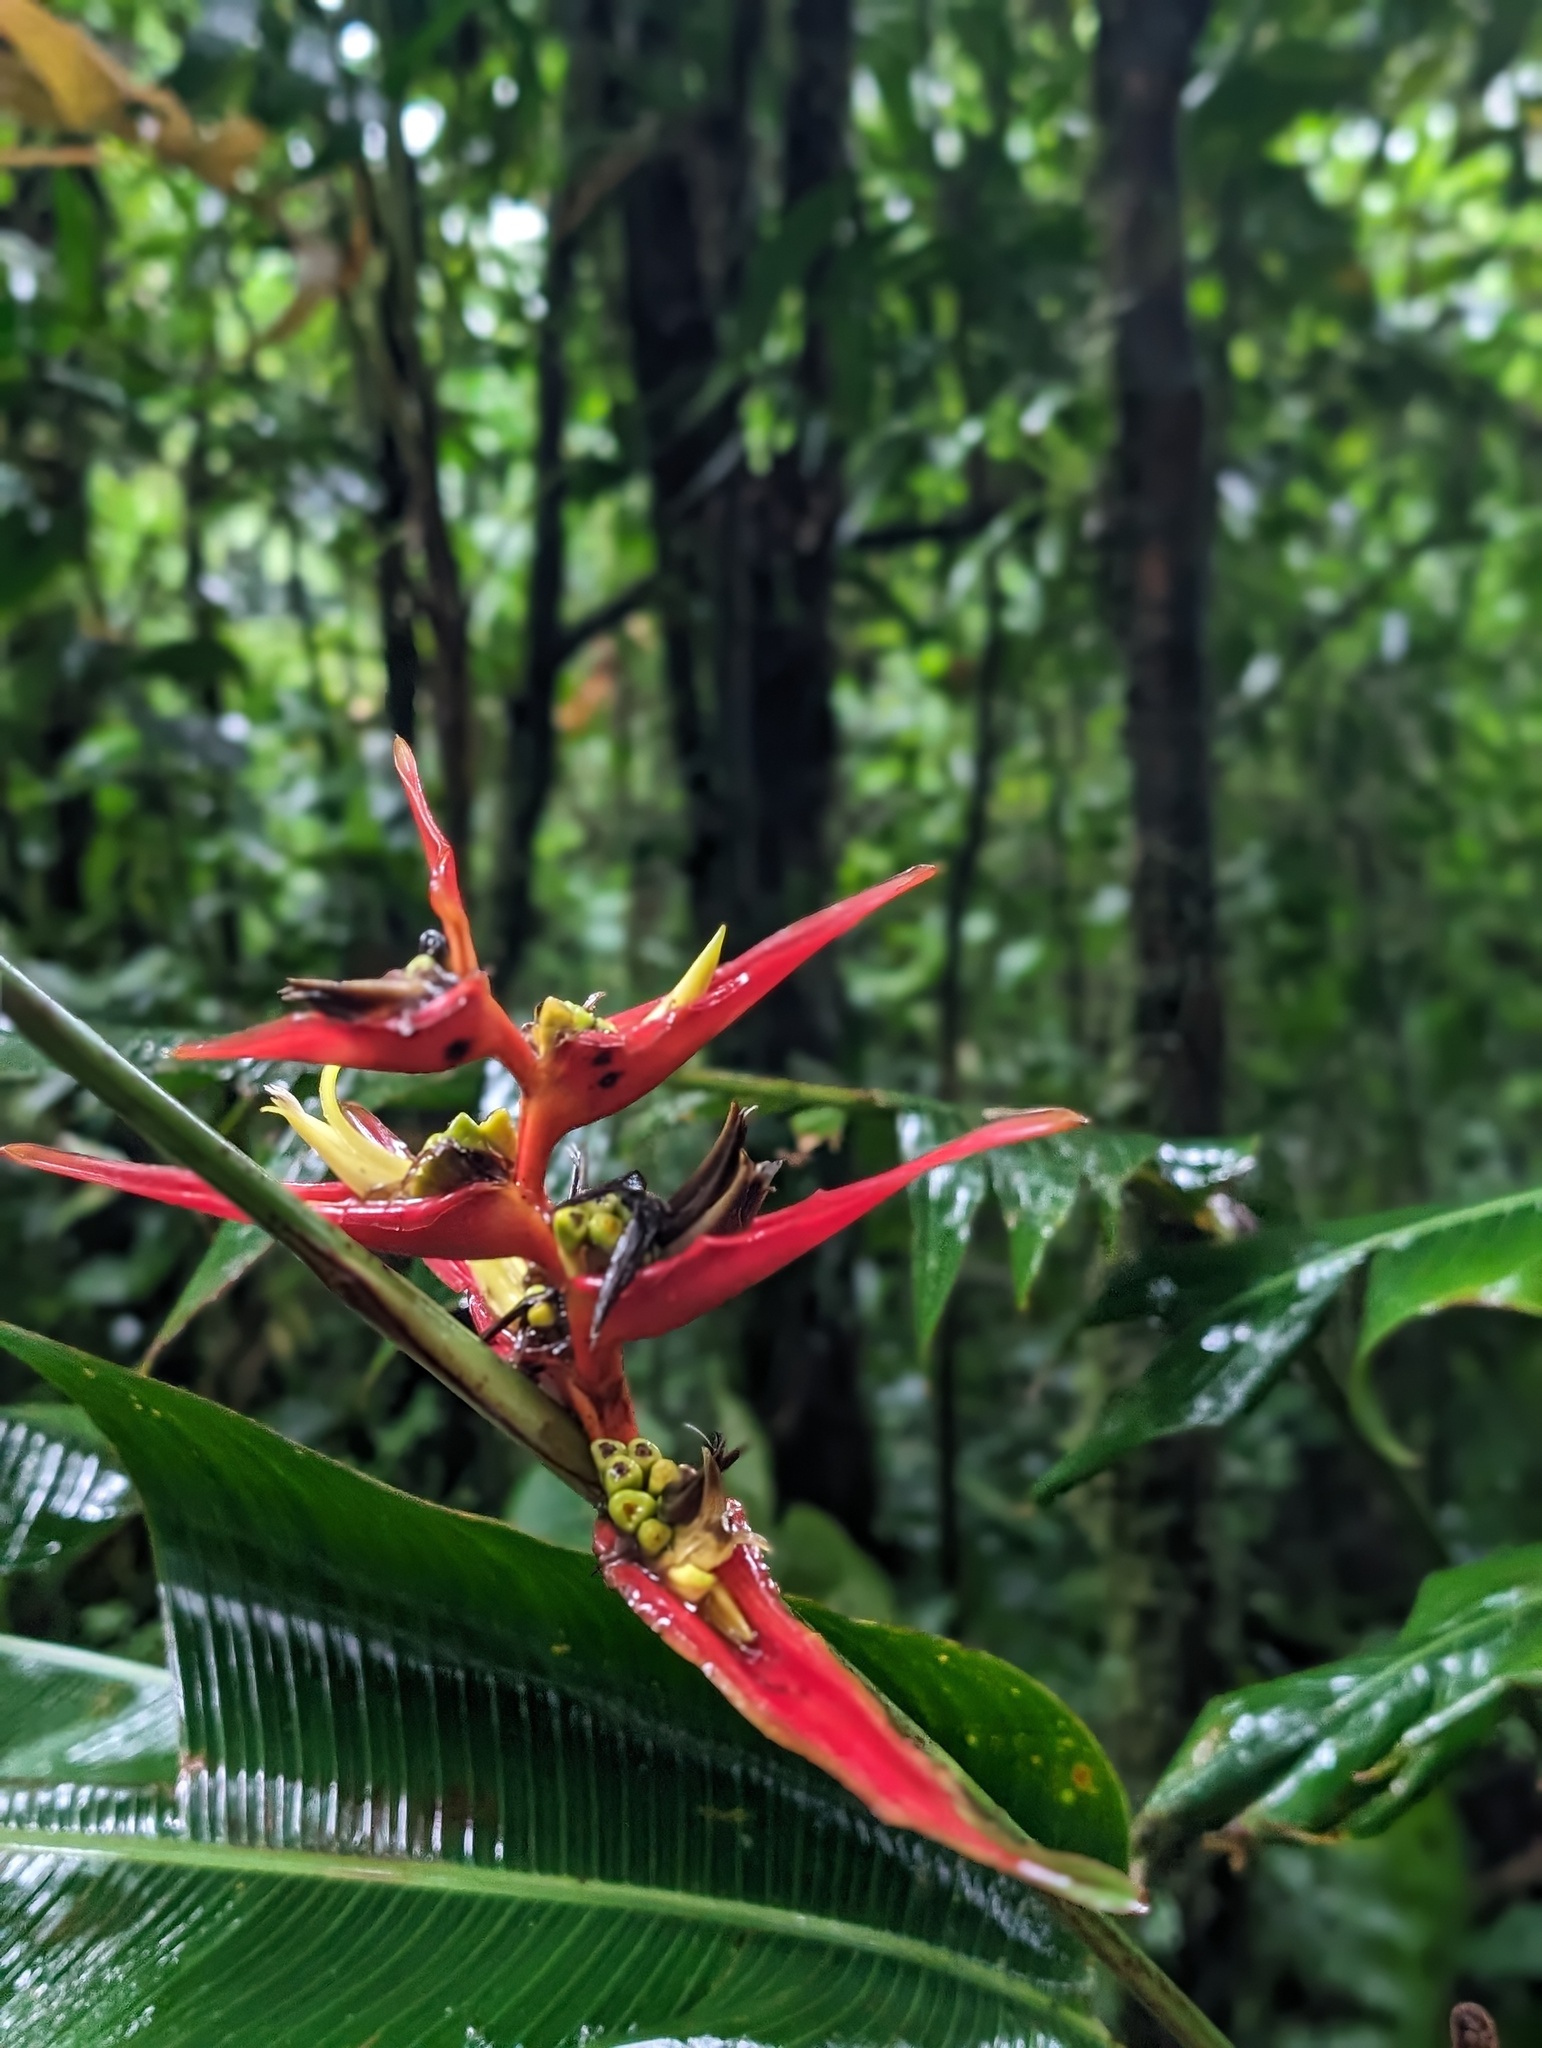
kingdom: Plantae
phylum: Tracheophyta
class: Liliopsida
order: Zingiberales
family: Heliconiaceae
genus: Heliconia
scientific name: Heliconia monteverdensis
